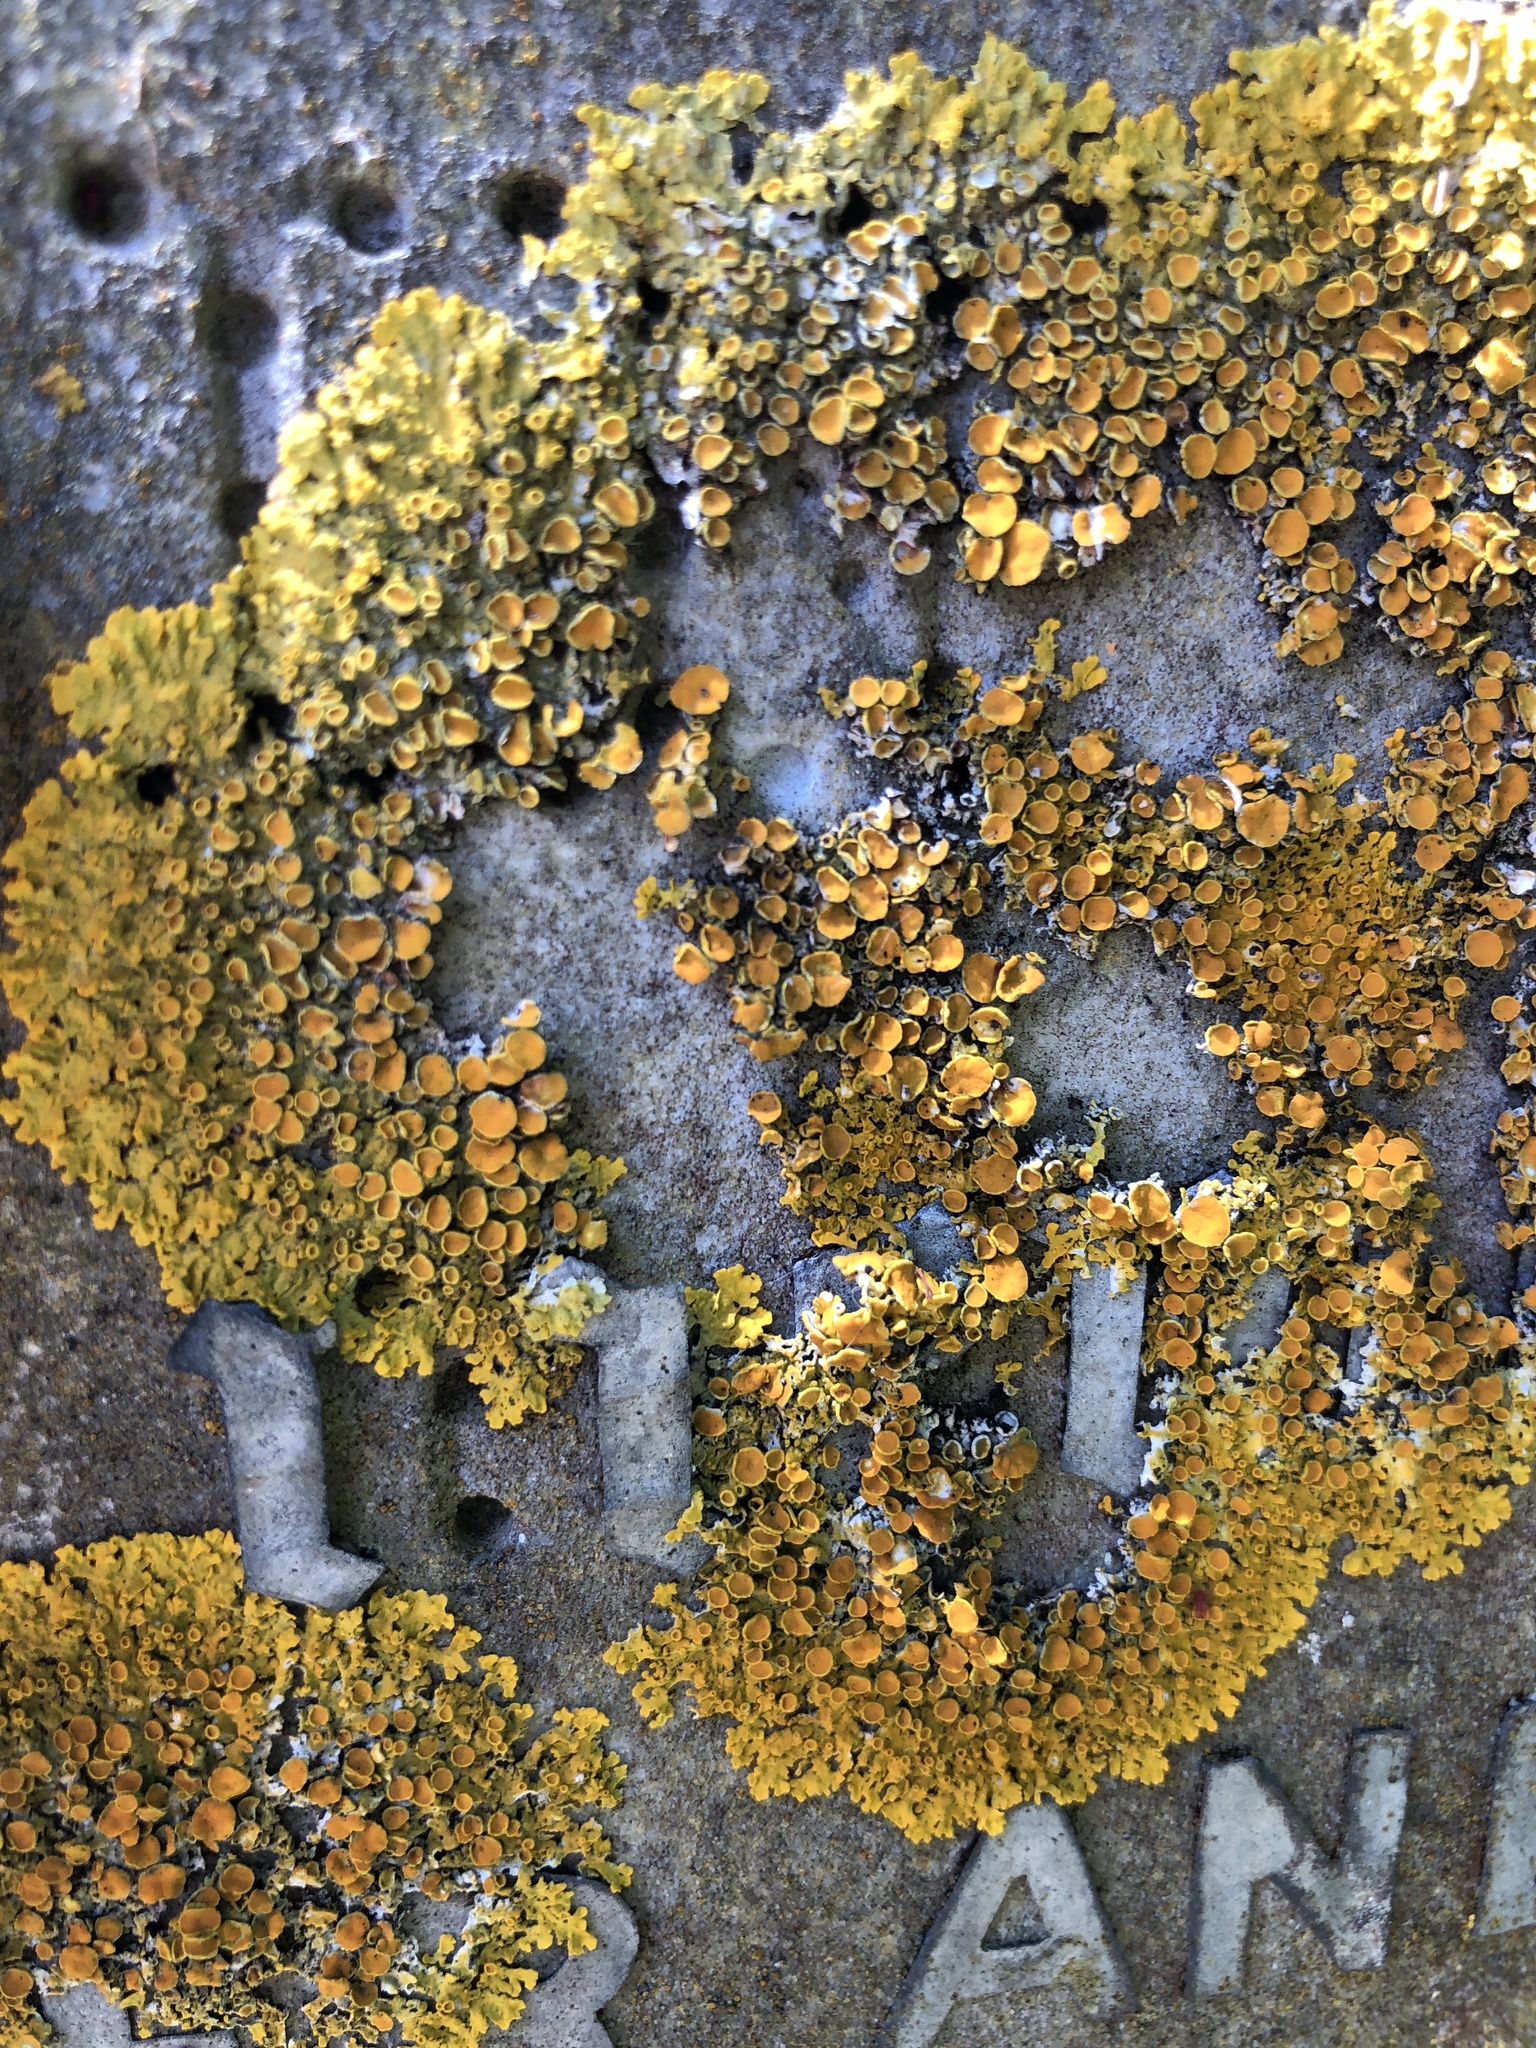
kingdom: Fungi
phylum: Ascomycota
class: Lecanoromycetes
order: Teloschistales
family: Teloschistaceae
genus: Xanthoria
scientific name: Xanthoria parietina
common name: Common orange lichen
